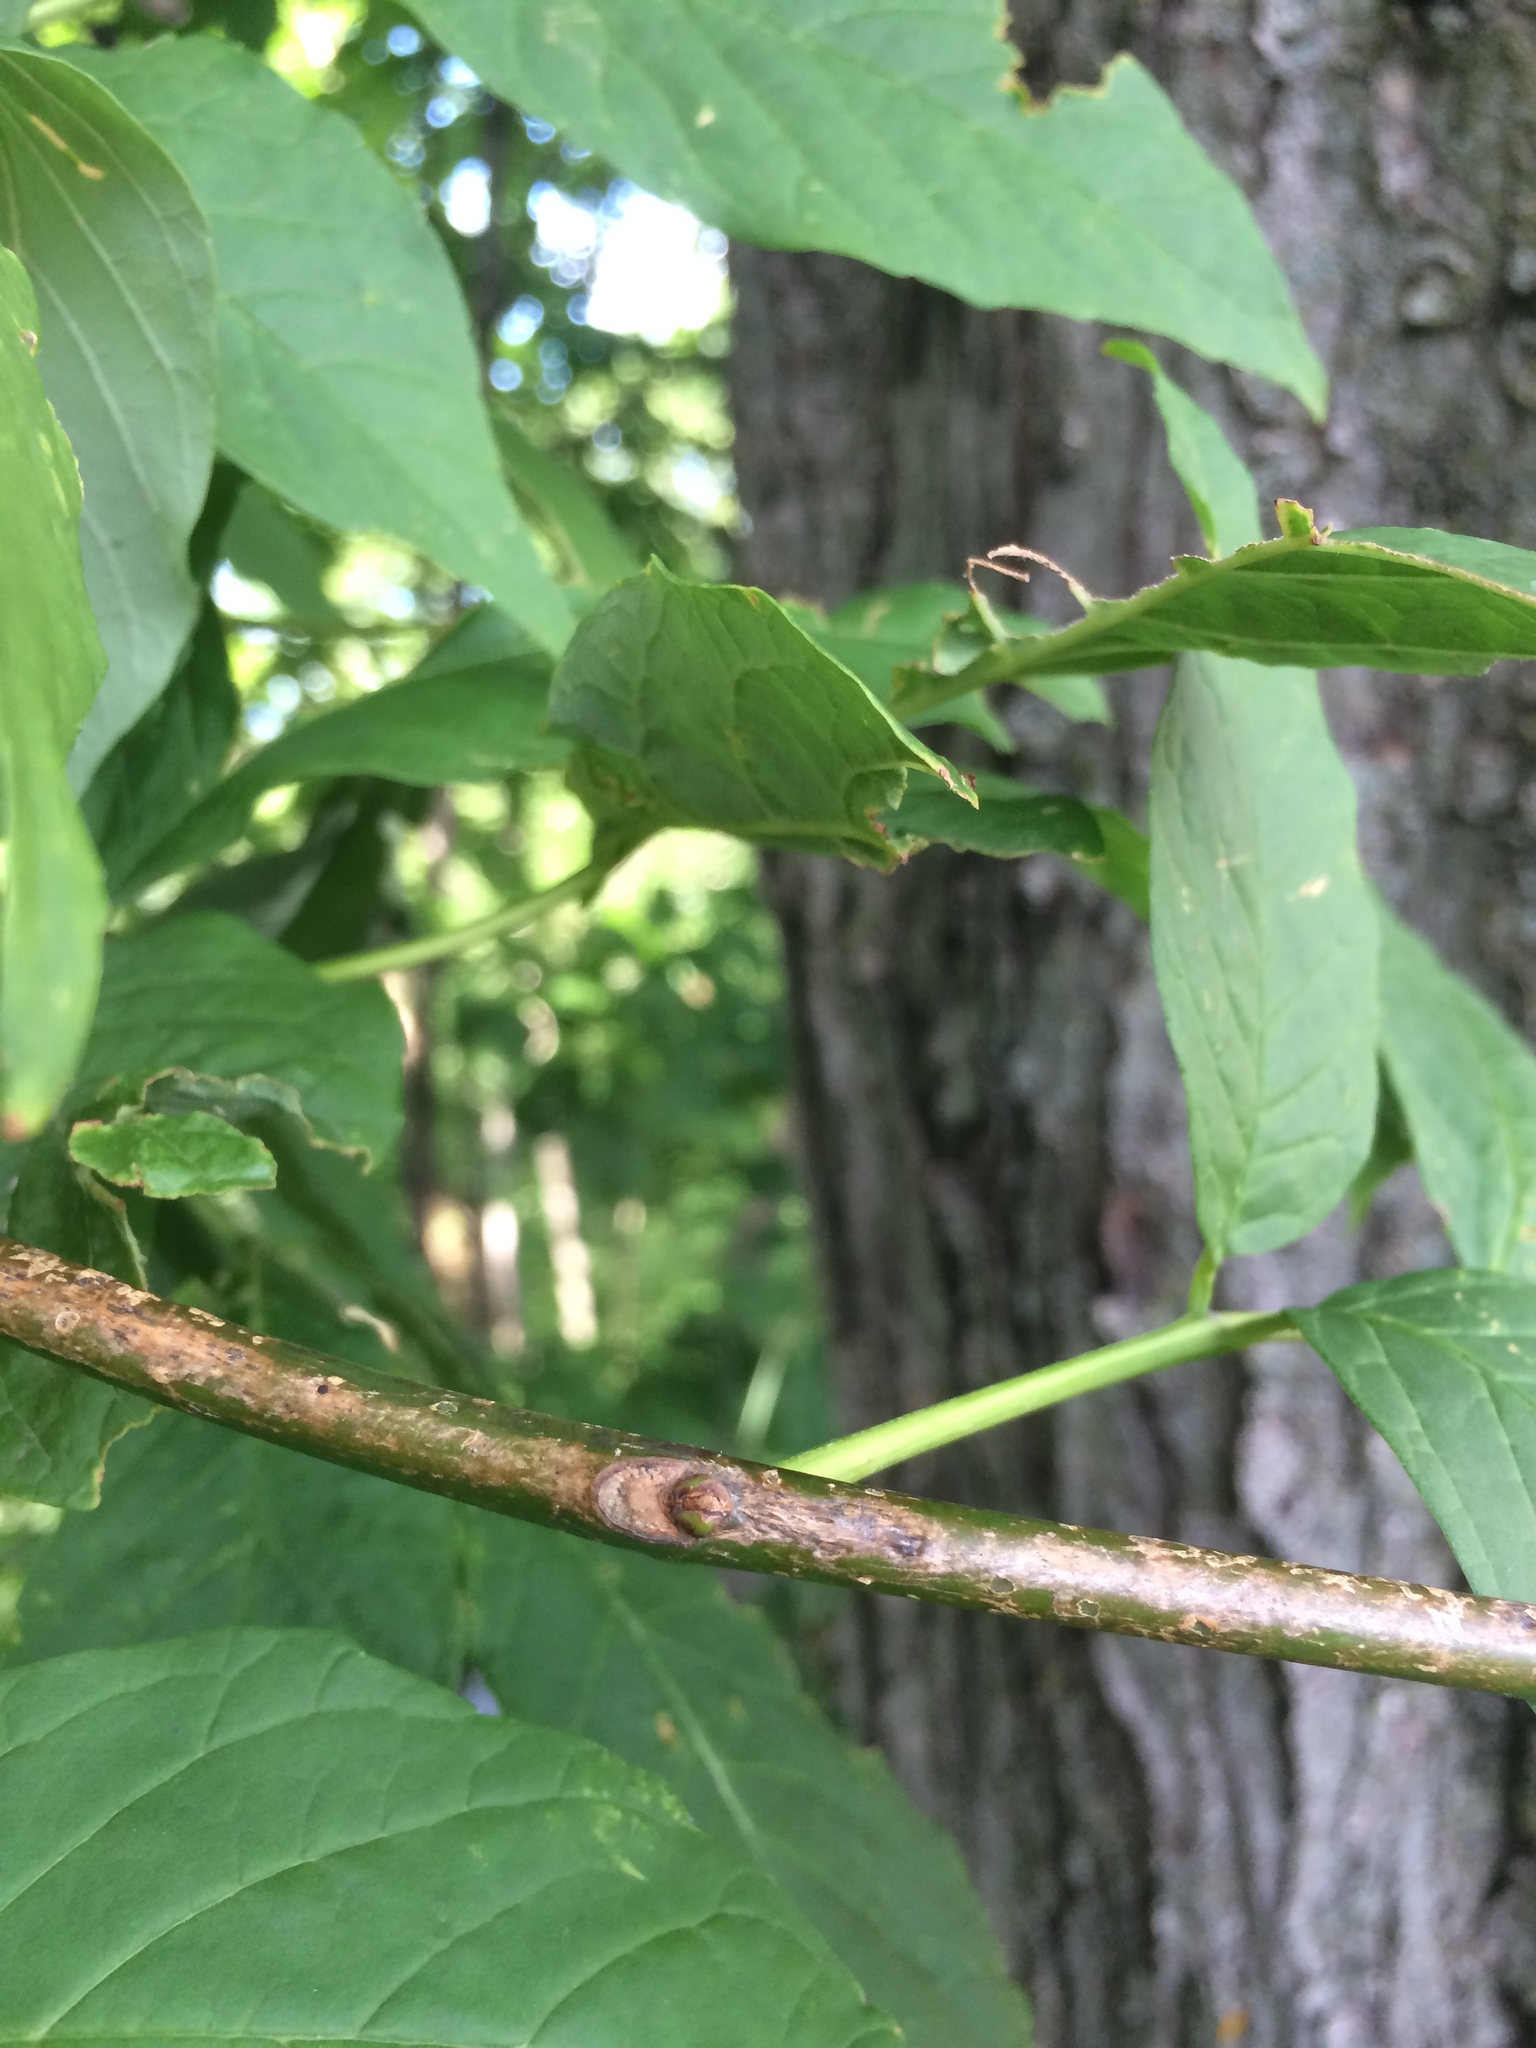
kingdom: Plantae
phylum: Tracheophyta
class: Magnoliopsida
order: Lamiales
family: Oleaceae
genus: Fraxinus
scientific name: Fraxinus americana
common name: White ash
